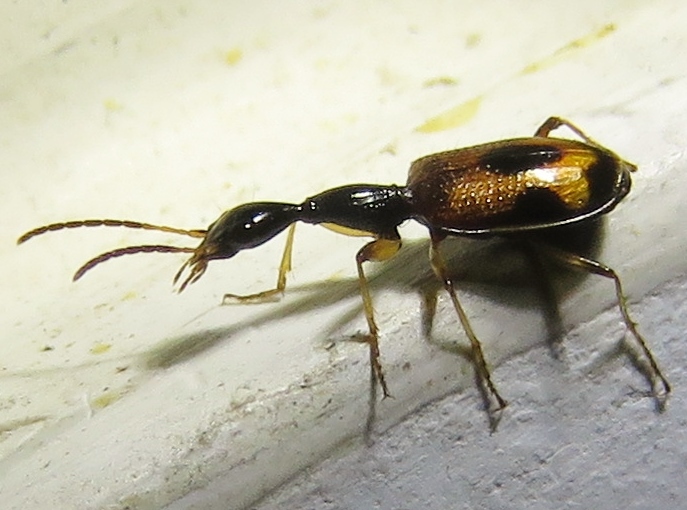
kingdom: Animalia
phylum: Arthropoda
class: Insecta
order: Coleoptera
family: Carabidae
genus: Colliuris
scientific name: Colliuris pensylvanica
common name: Long-necked ground beetle
